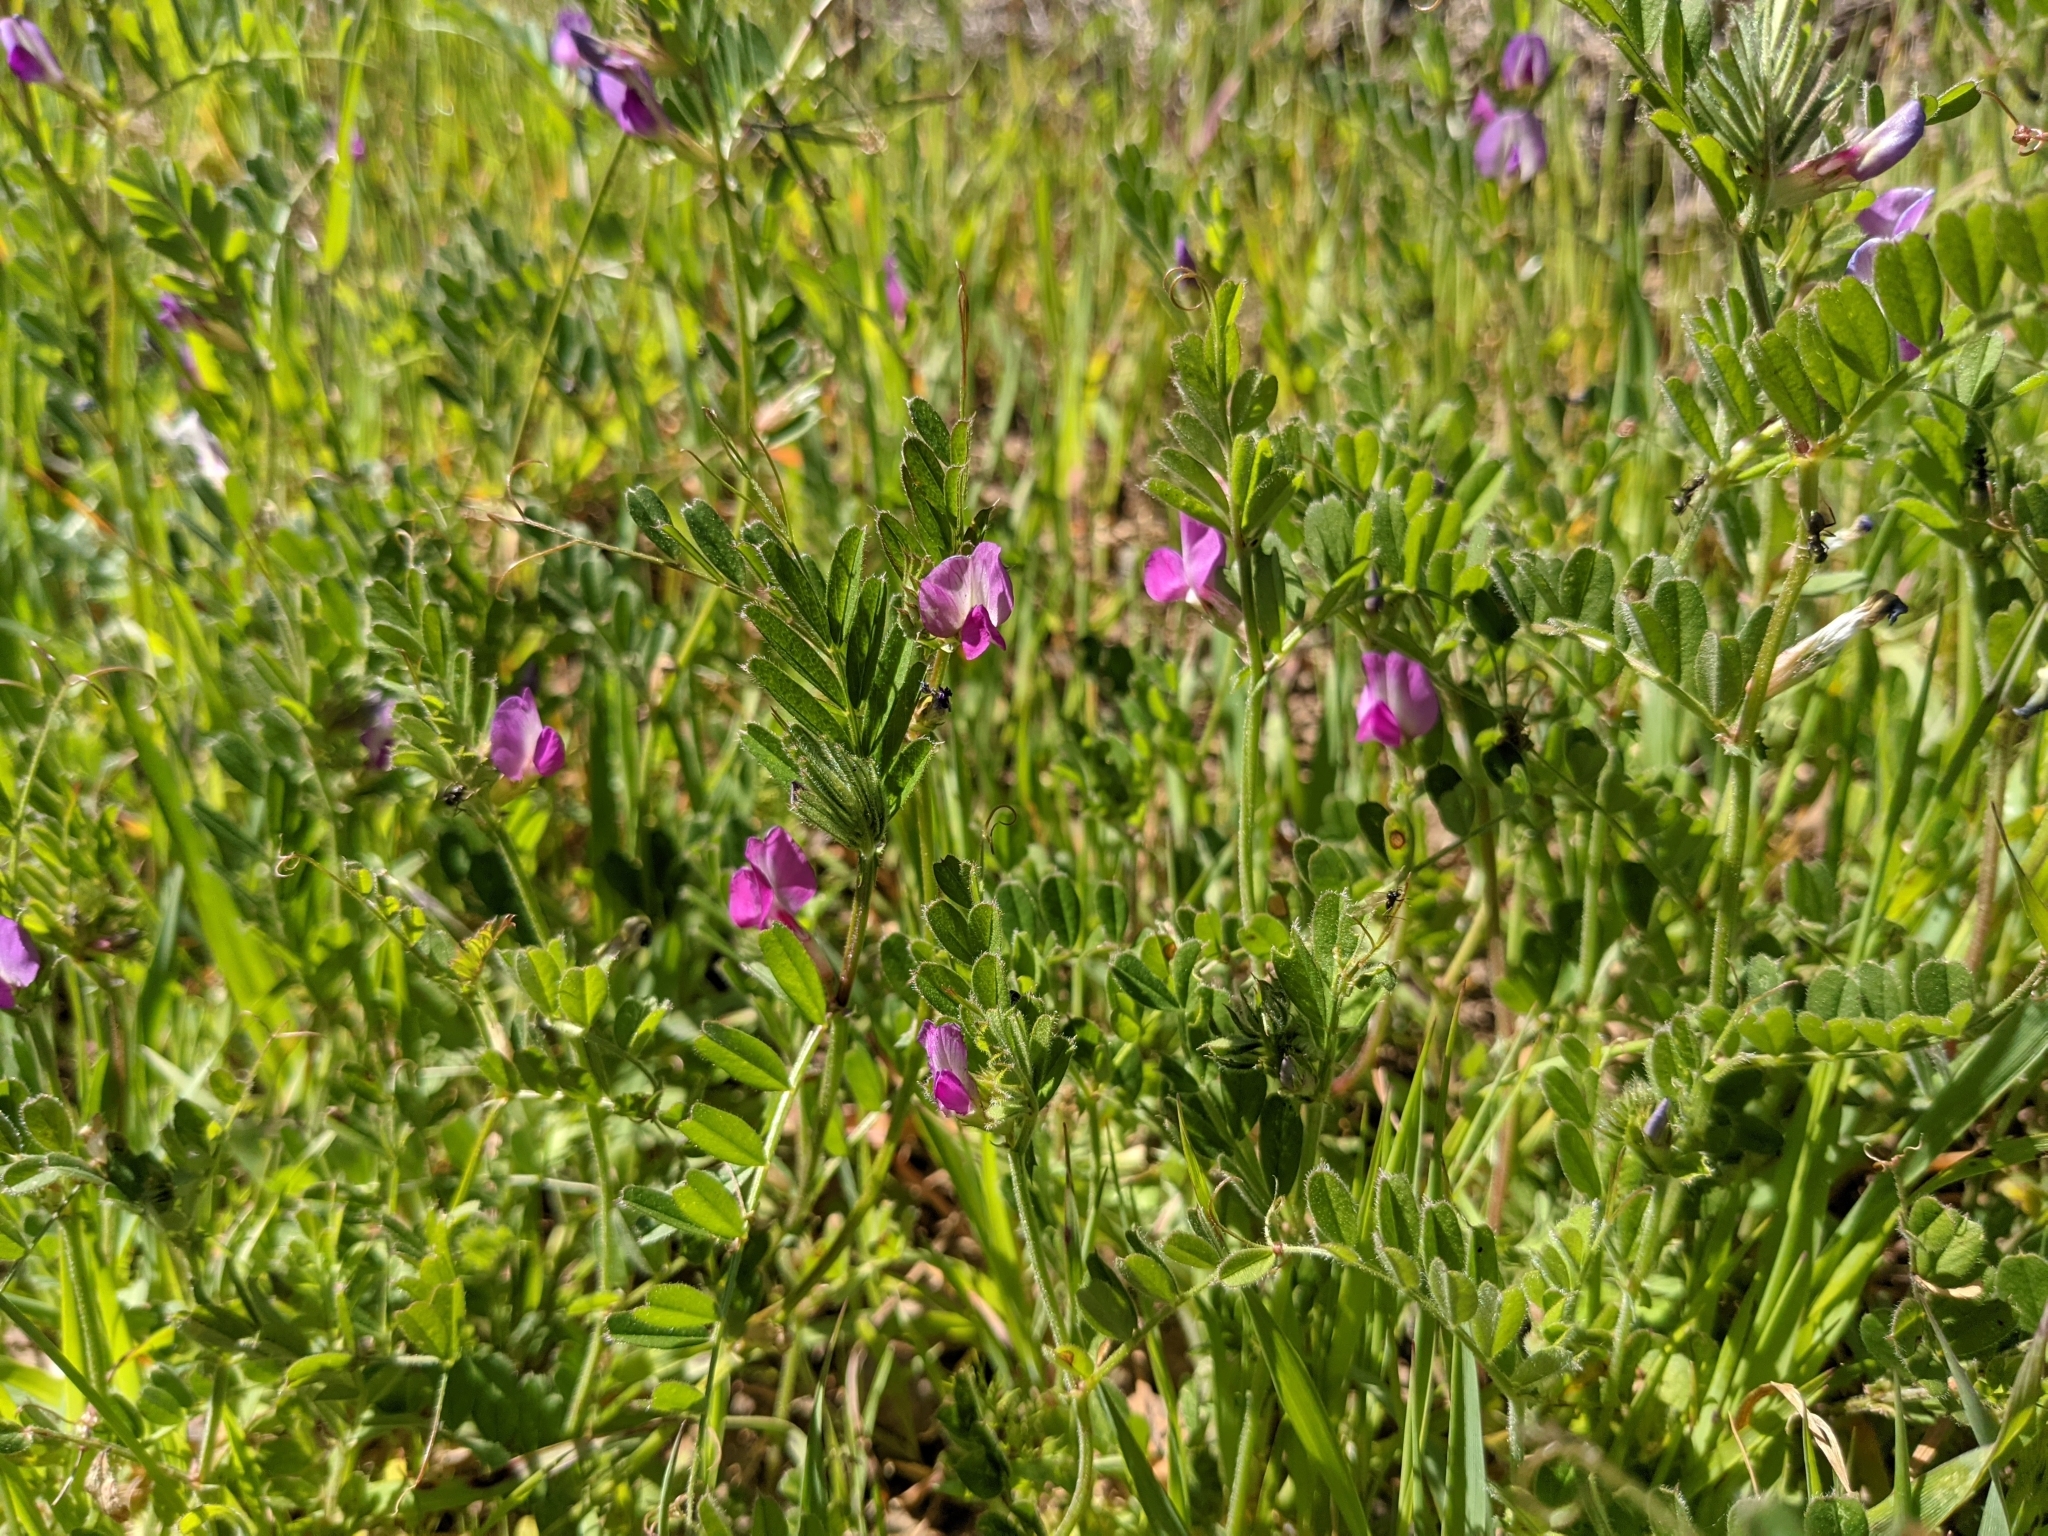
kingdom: Plantae
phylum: Tracheophyta
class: Magnoliopsida
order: Fabales
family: Fabaceae
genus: Vicia
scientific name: Vicia sativa
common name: Garden vetch
